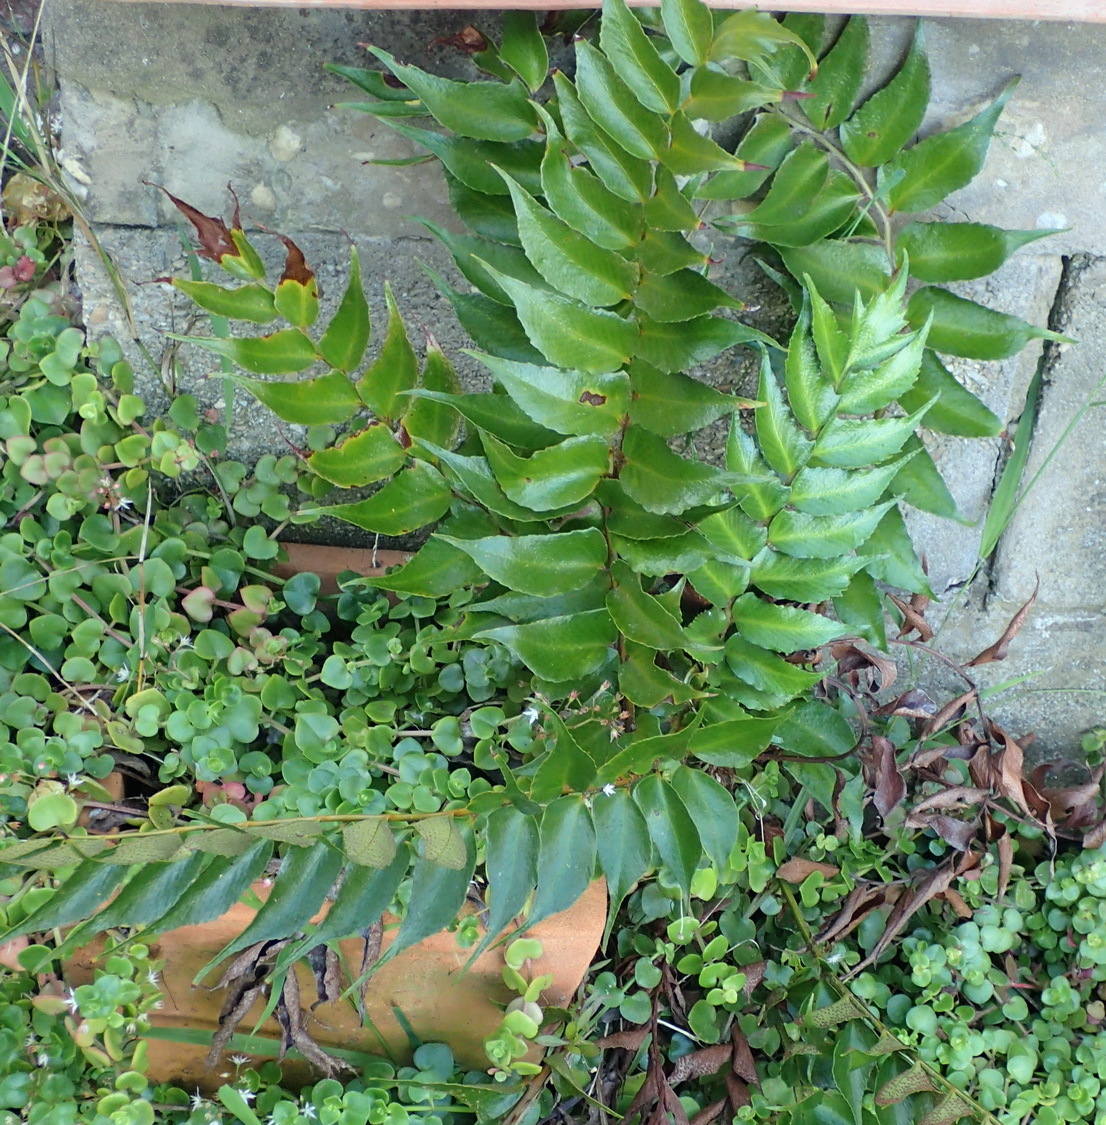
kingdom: Plantae
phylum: Tracheophyta
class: Polypodiopsida
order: Polypodiales
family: Dryopteridaceae
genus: Cyrtomium
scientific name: Cyrtomium falcatum
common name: House holly-fern
